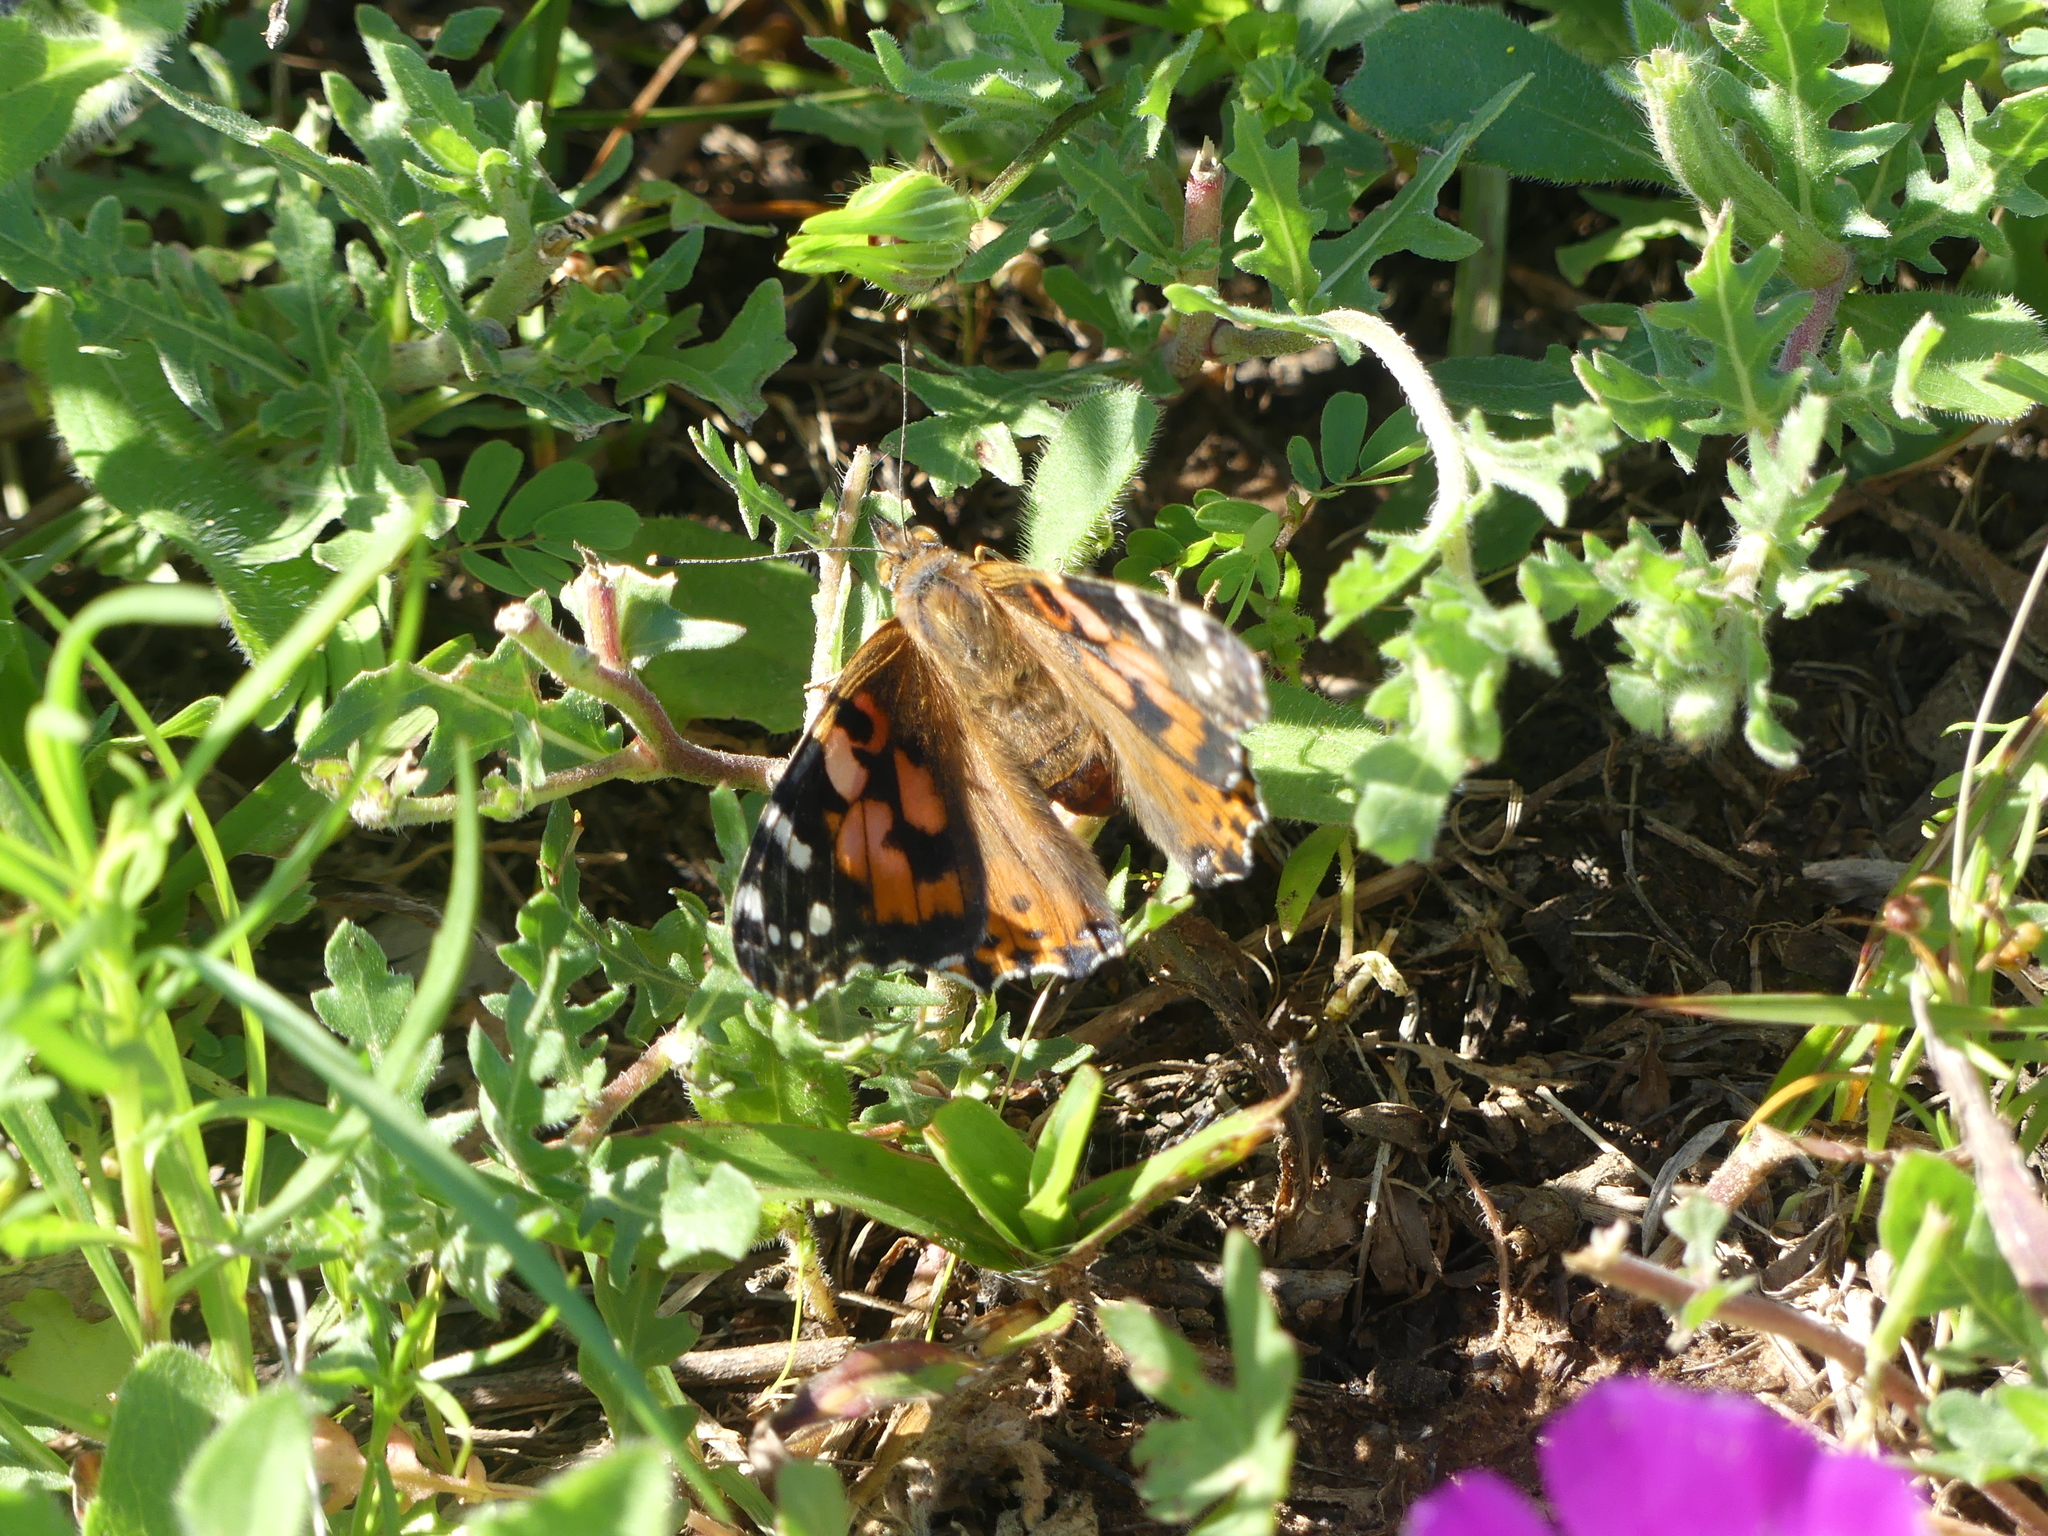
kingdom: Animalia
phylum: Arthropoda
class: Insecta
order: Lepidoptera
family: Nymphalidae
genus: Vanessa
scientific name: Vanessa cardui
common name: Painted lady
